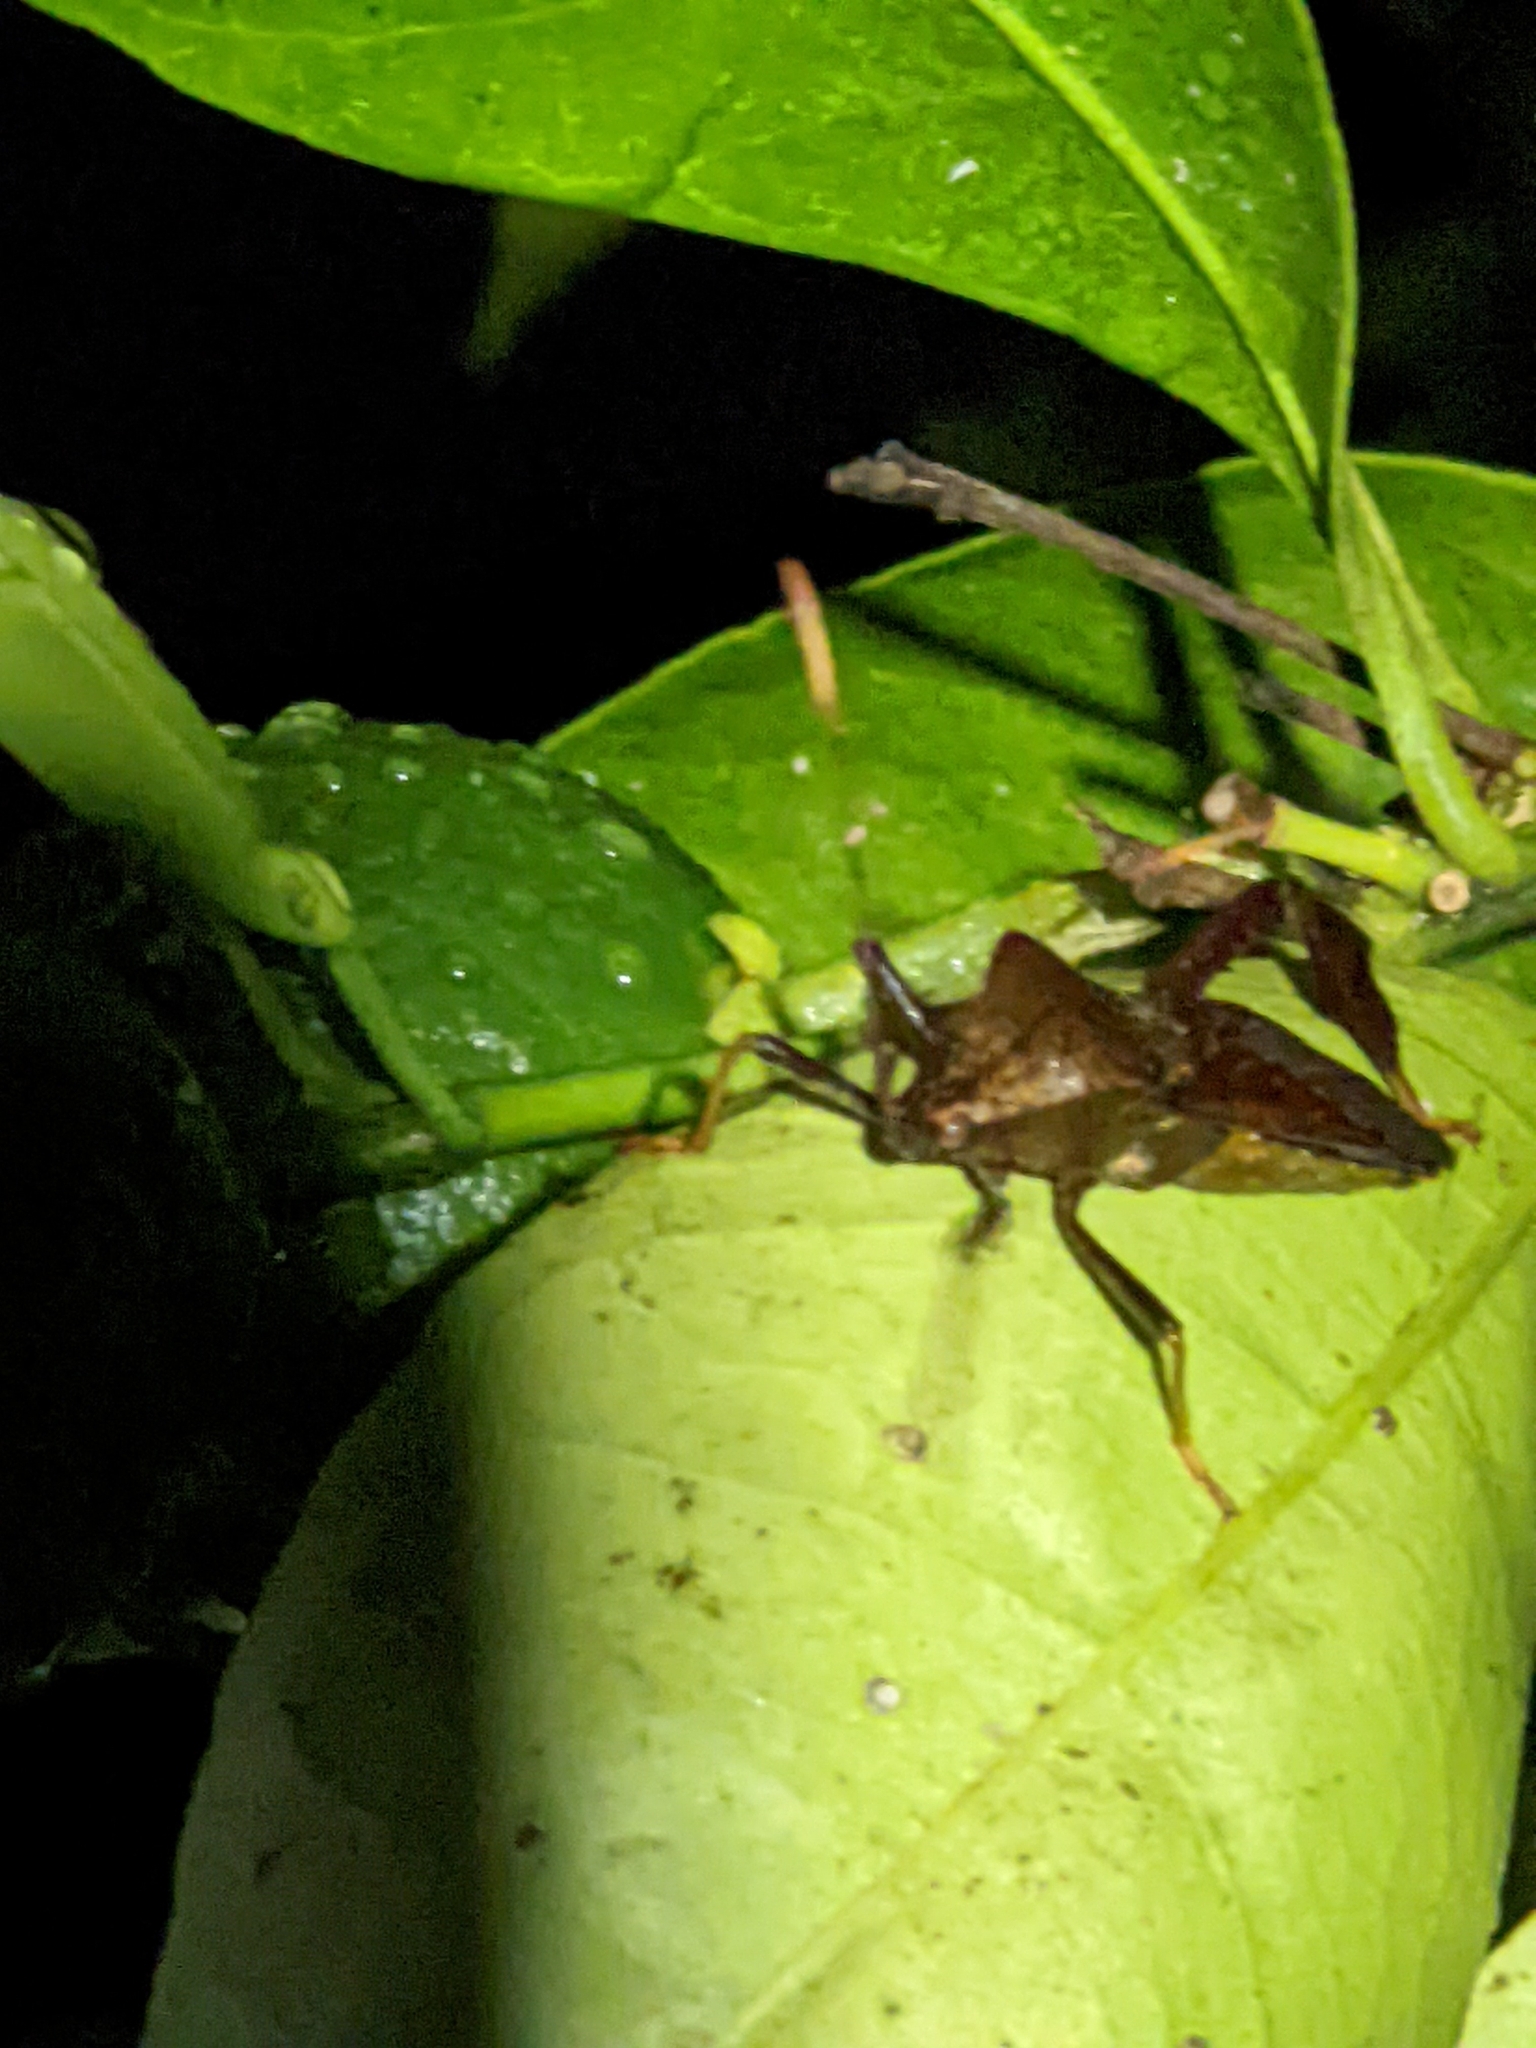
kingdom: Animalia
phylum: Arthropoda
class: Insecta
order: Hemiptera
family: Coreidae
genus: Acanthocephala
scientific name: Acanthocephala terminalis
